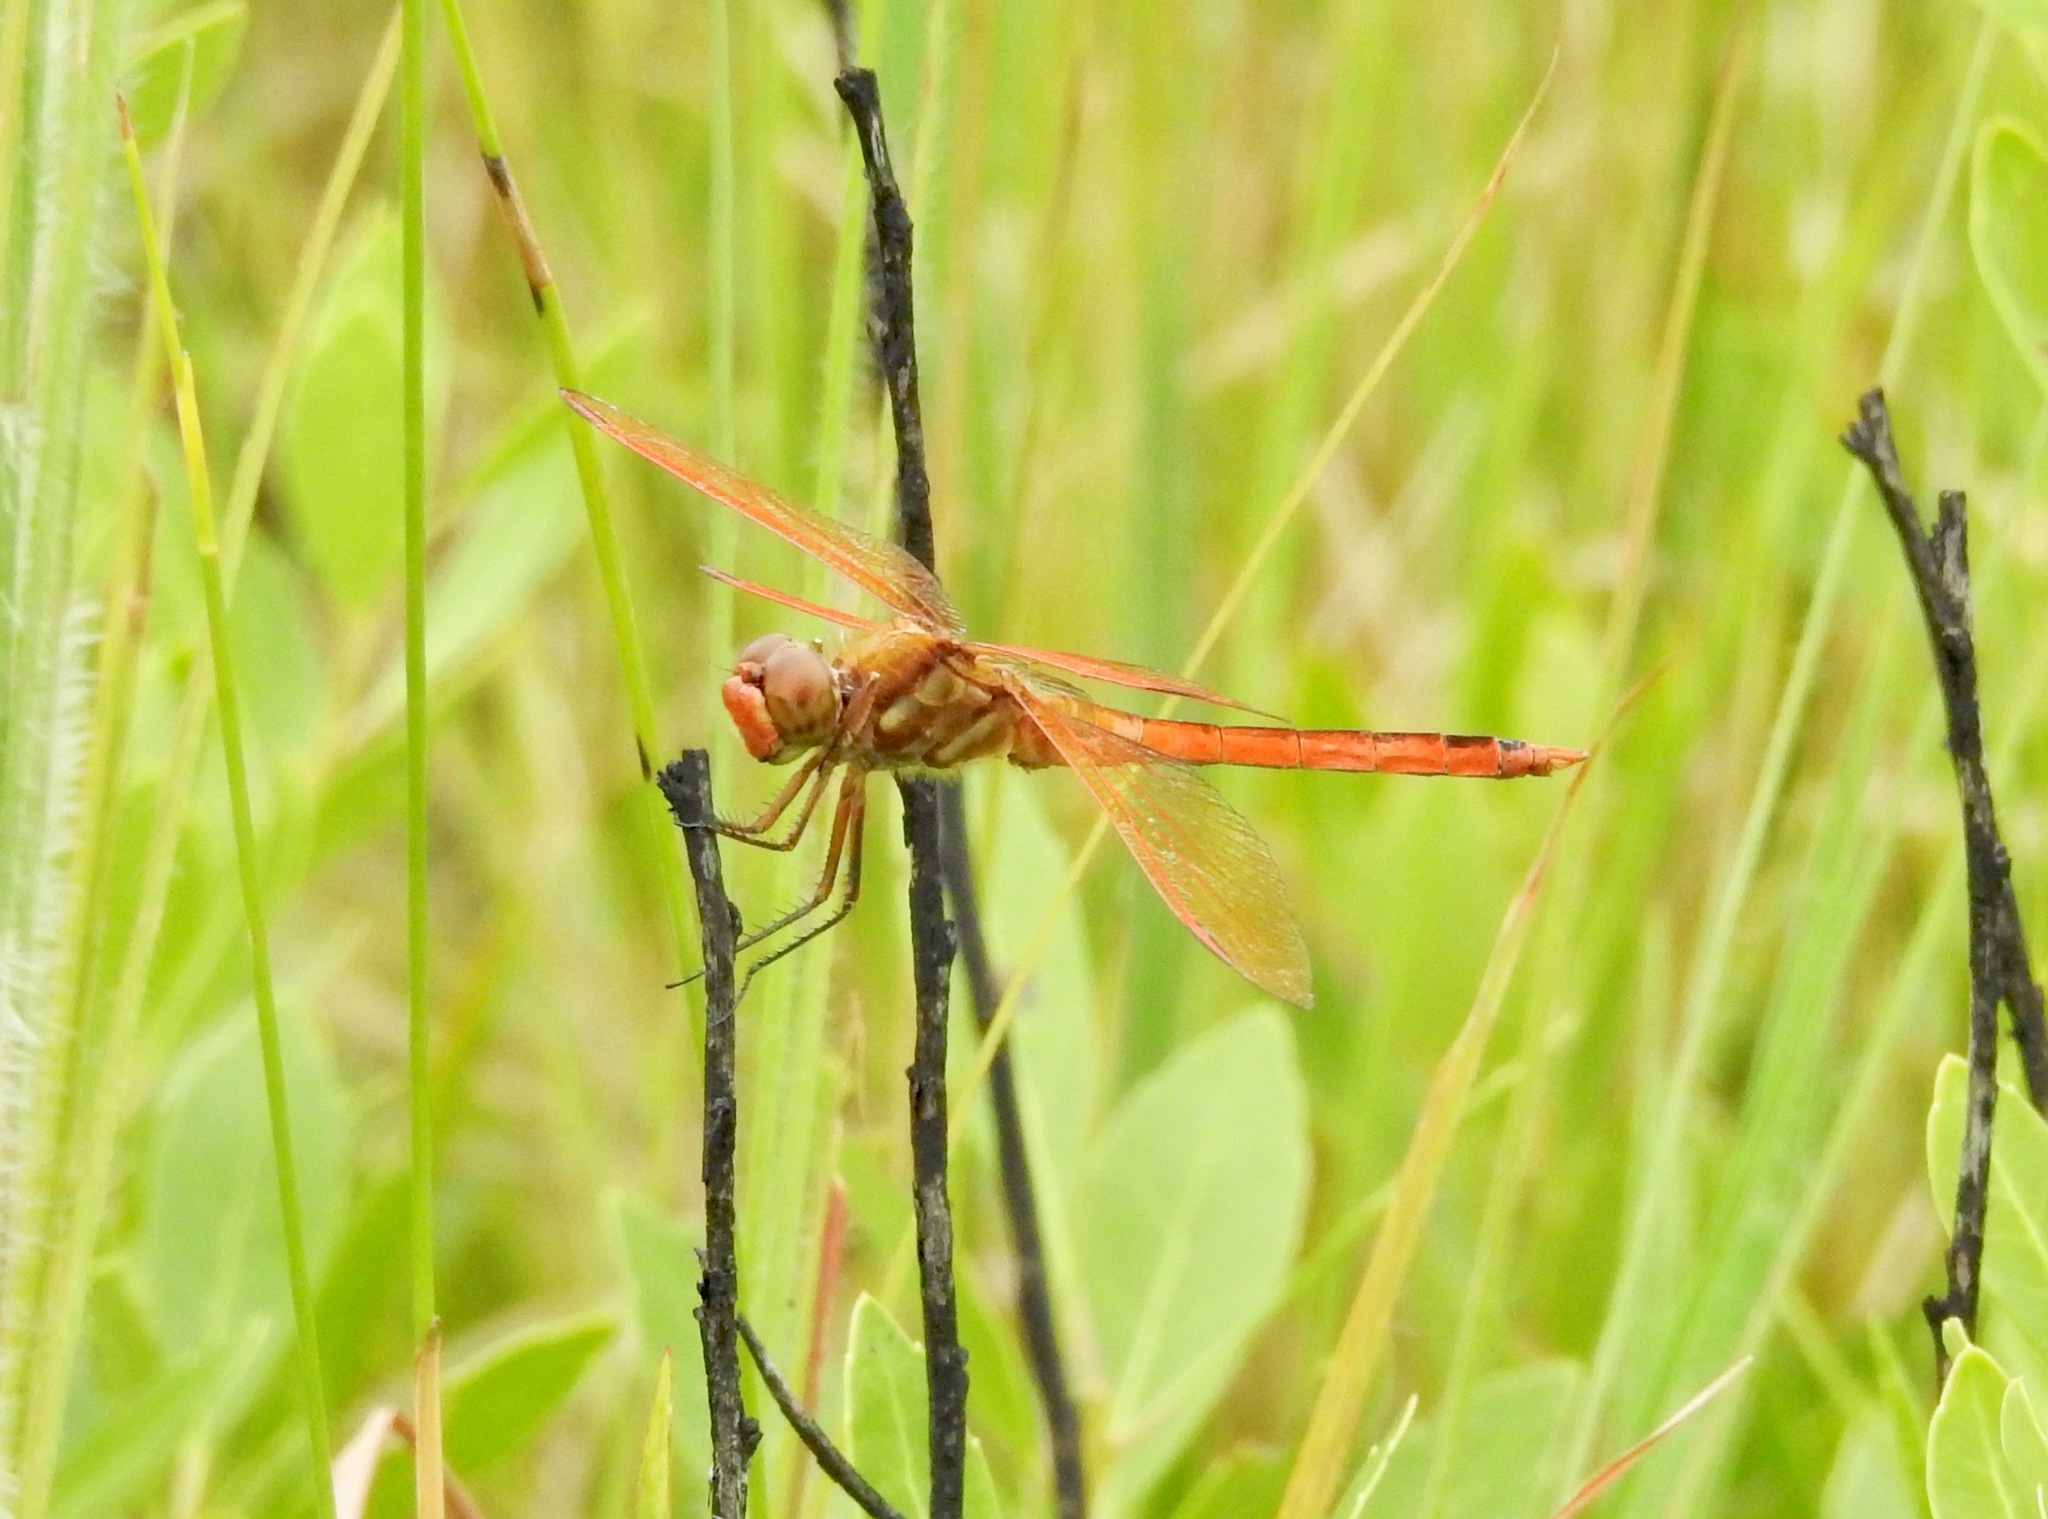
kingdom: Animalia
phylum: Arthropoda
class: Insecta
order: Odonata
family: Libellulidae
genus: Libellula
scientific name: Libellula auripennis
